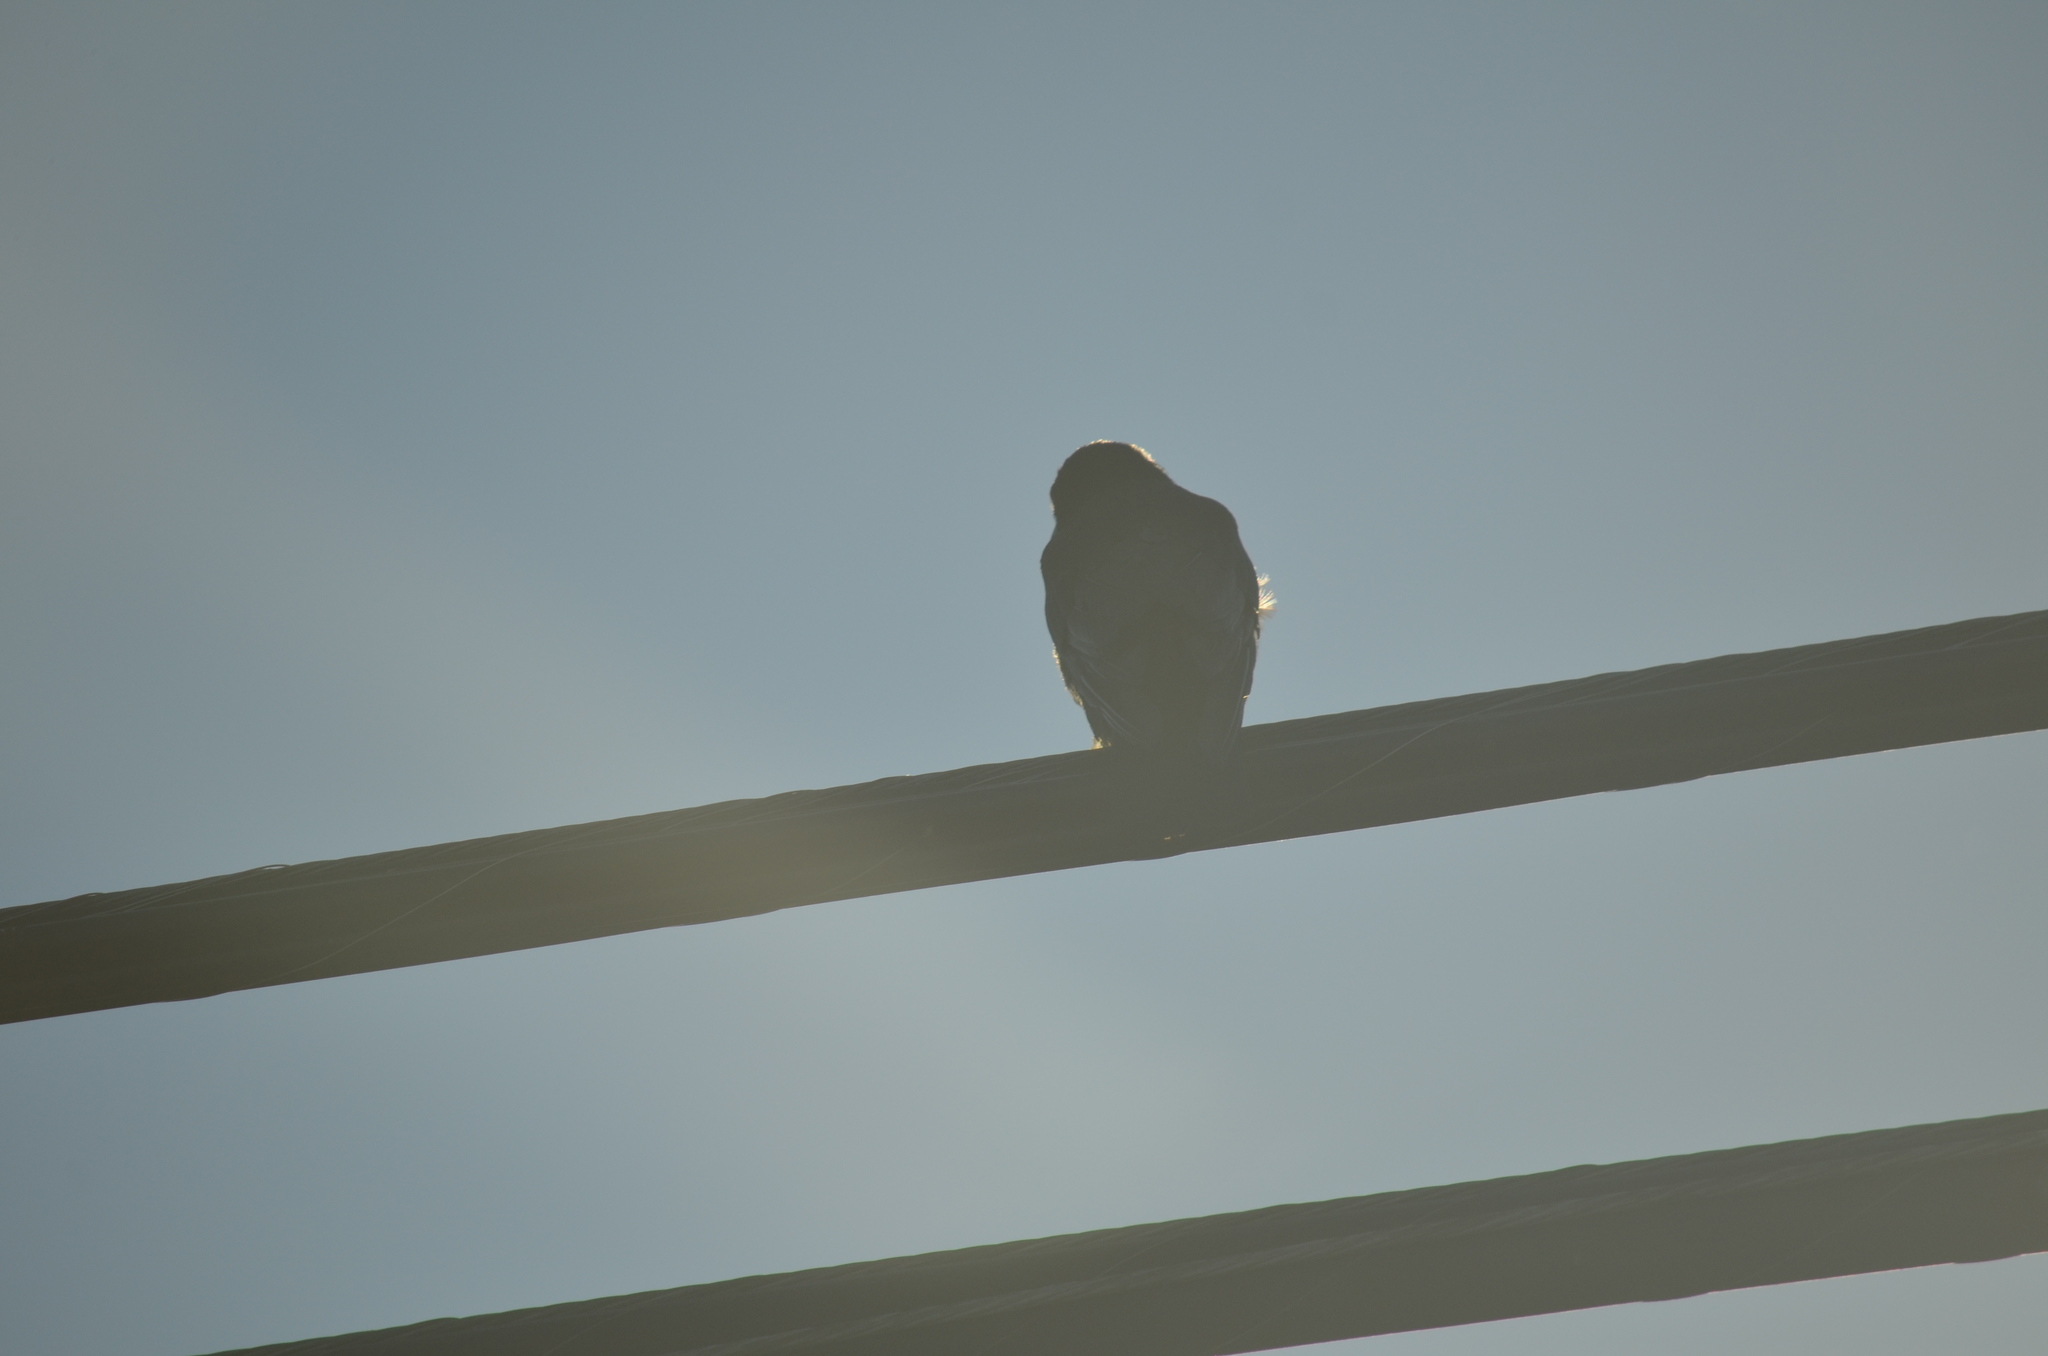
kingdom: Animalia
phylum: Chordata
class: Aves
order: Passeriformes
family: Corvidae
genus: Corvus
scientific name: Corvus brachyrhynchos
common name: American crow
